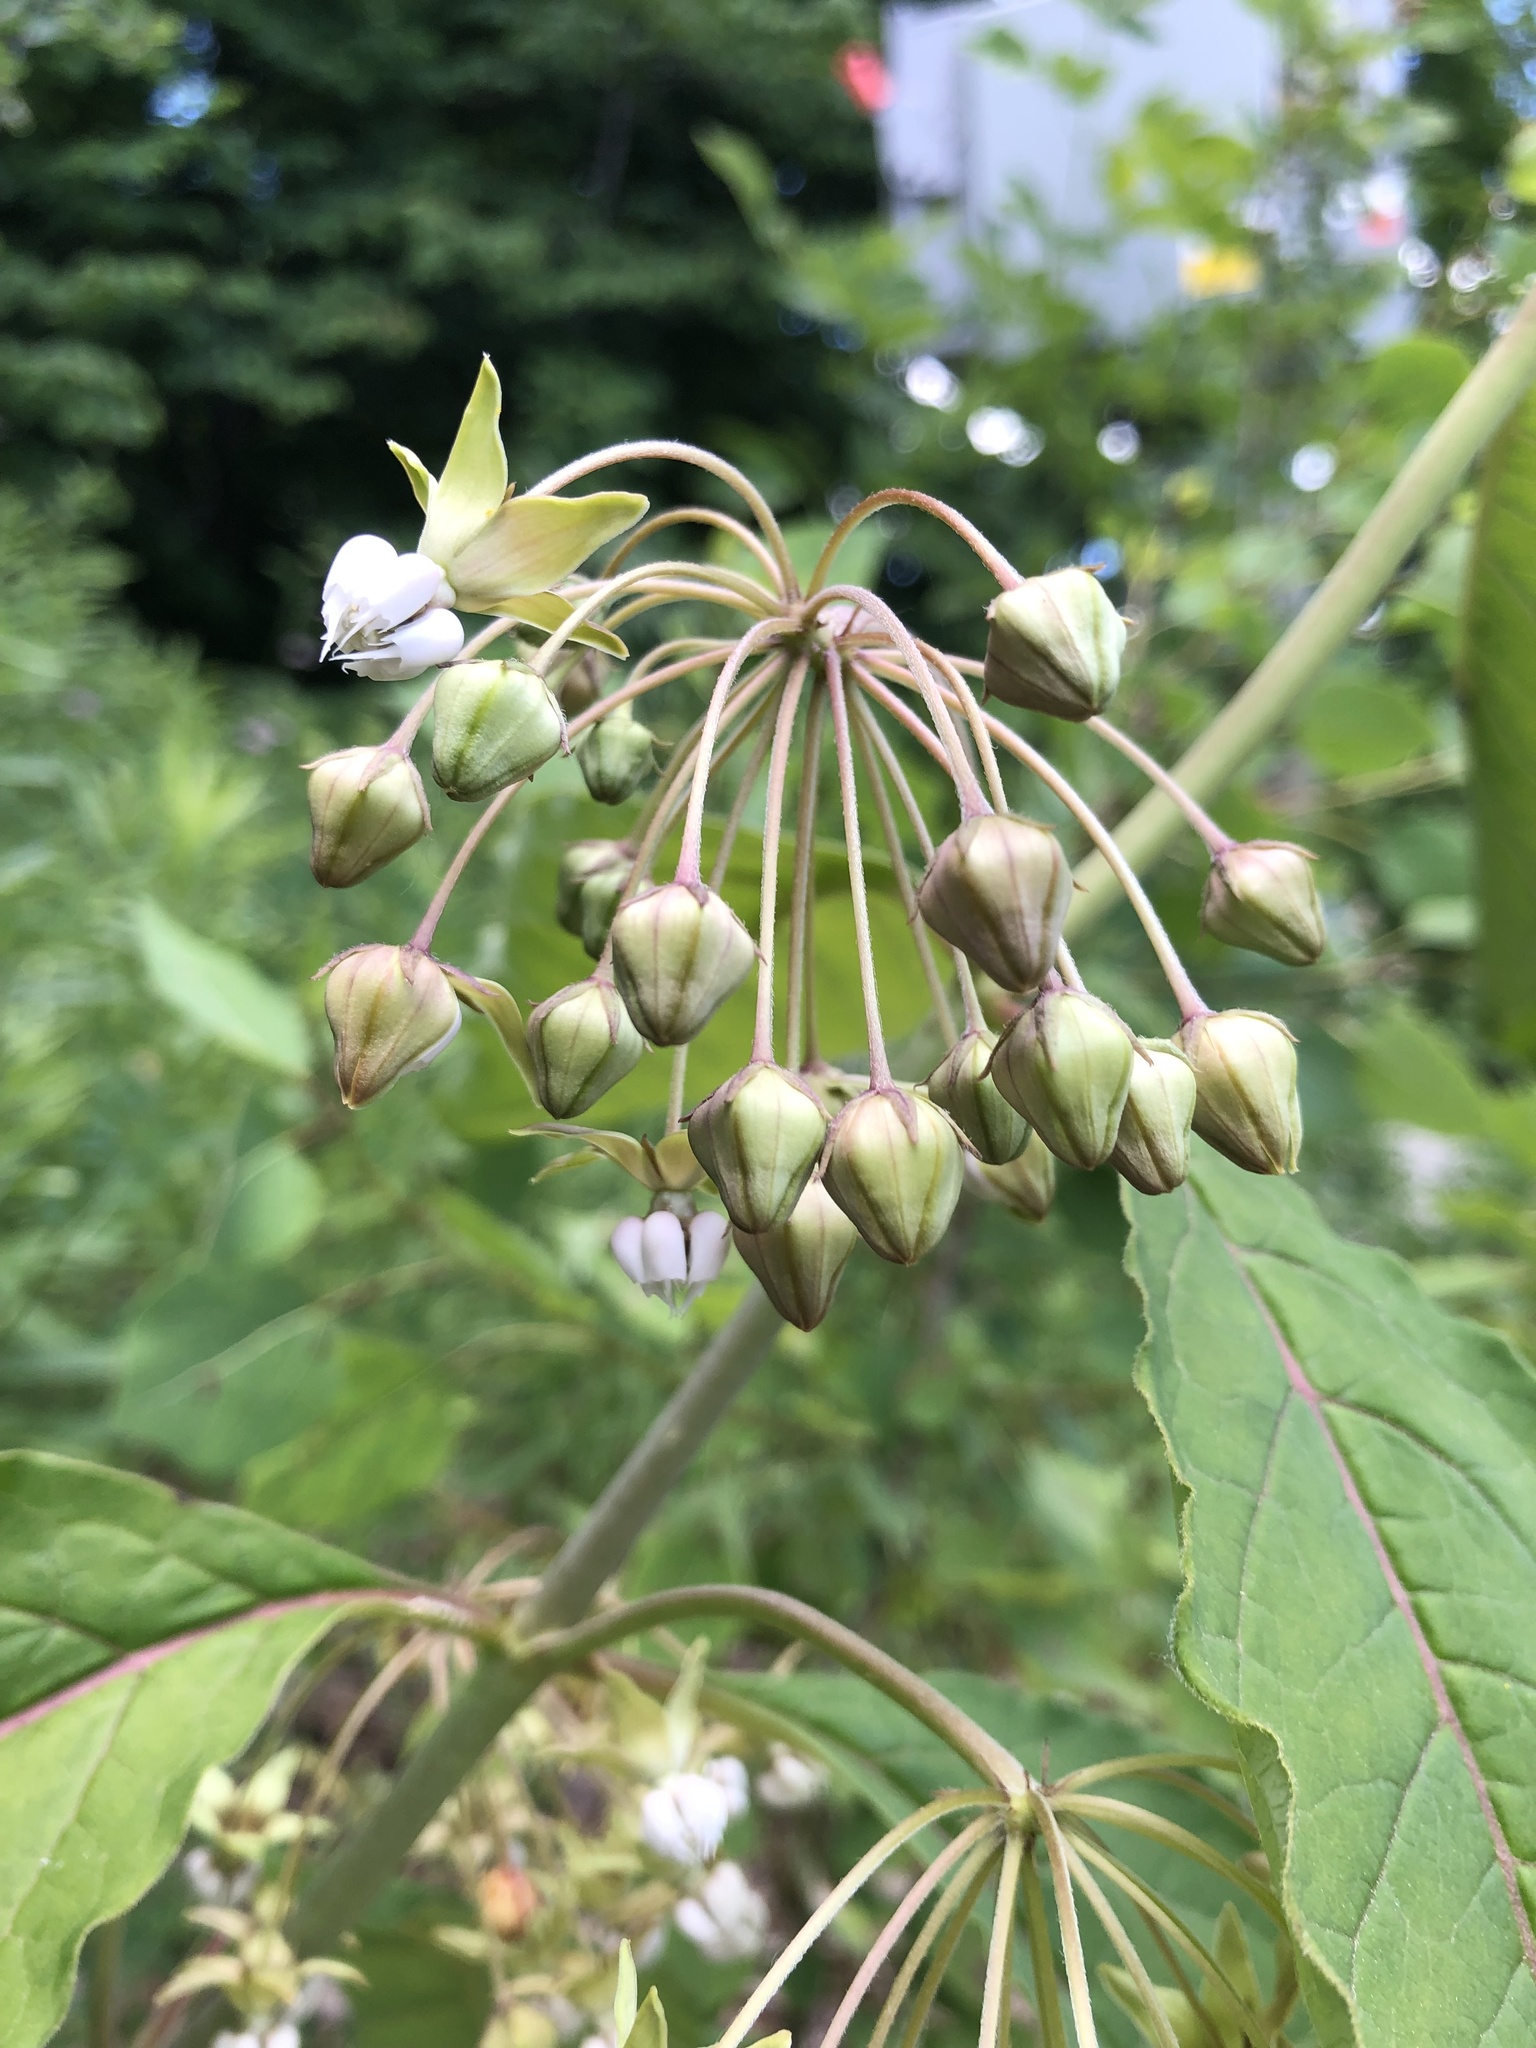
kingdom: Plantae
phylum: Tracheophyta
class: Magnoliopsida
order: Gentianales
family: Apocynaceae
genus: Asclepias
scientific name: Asclepias exaltata
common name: Poke milkweed
